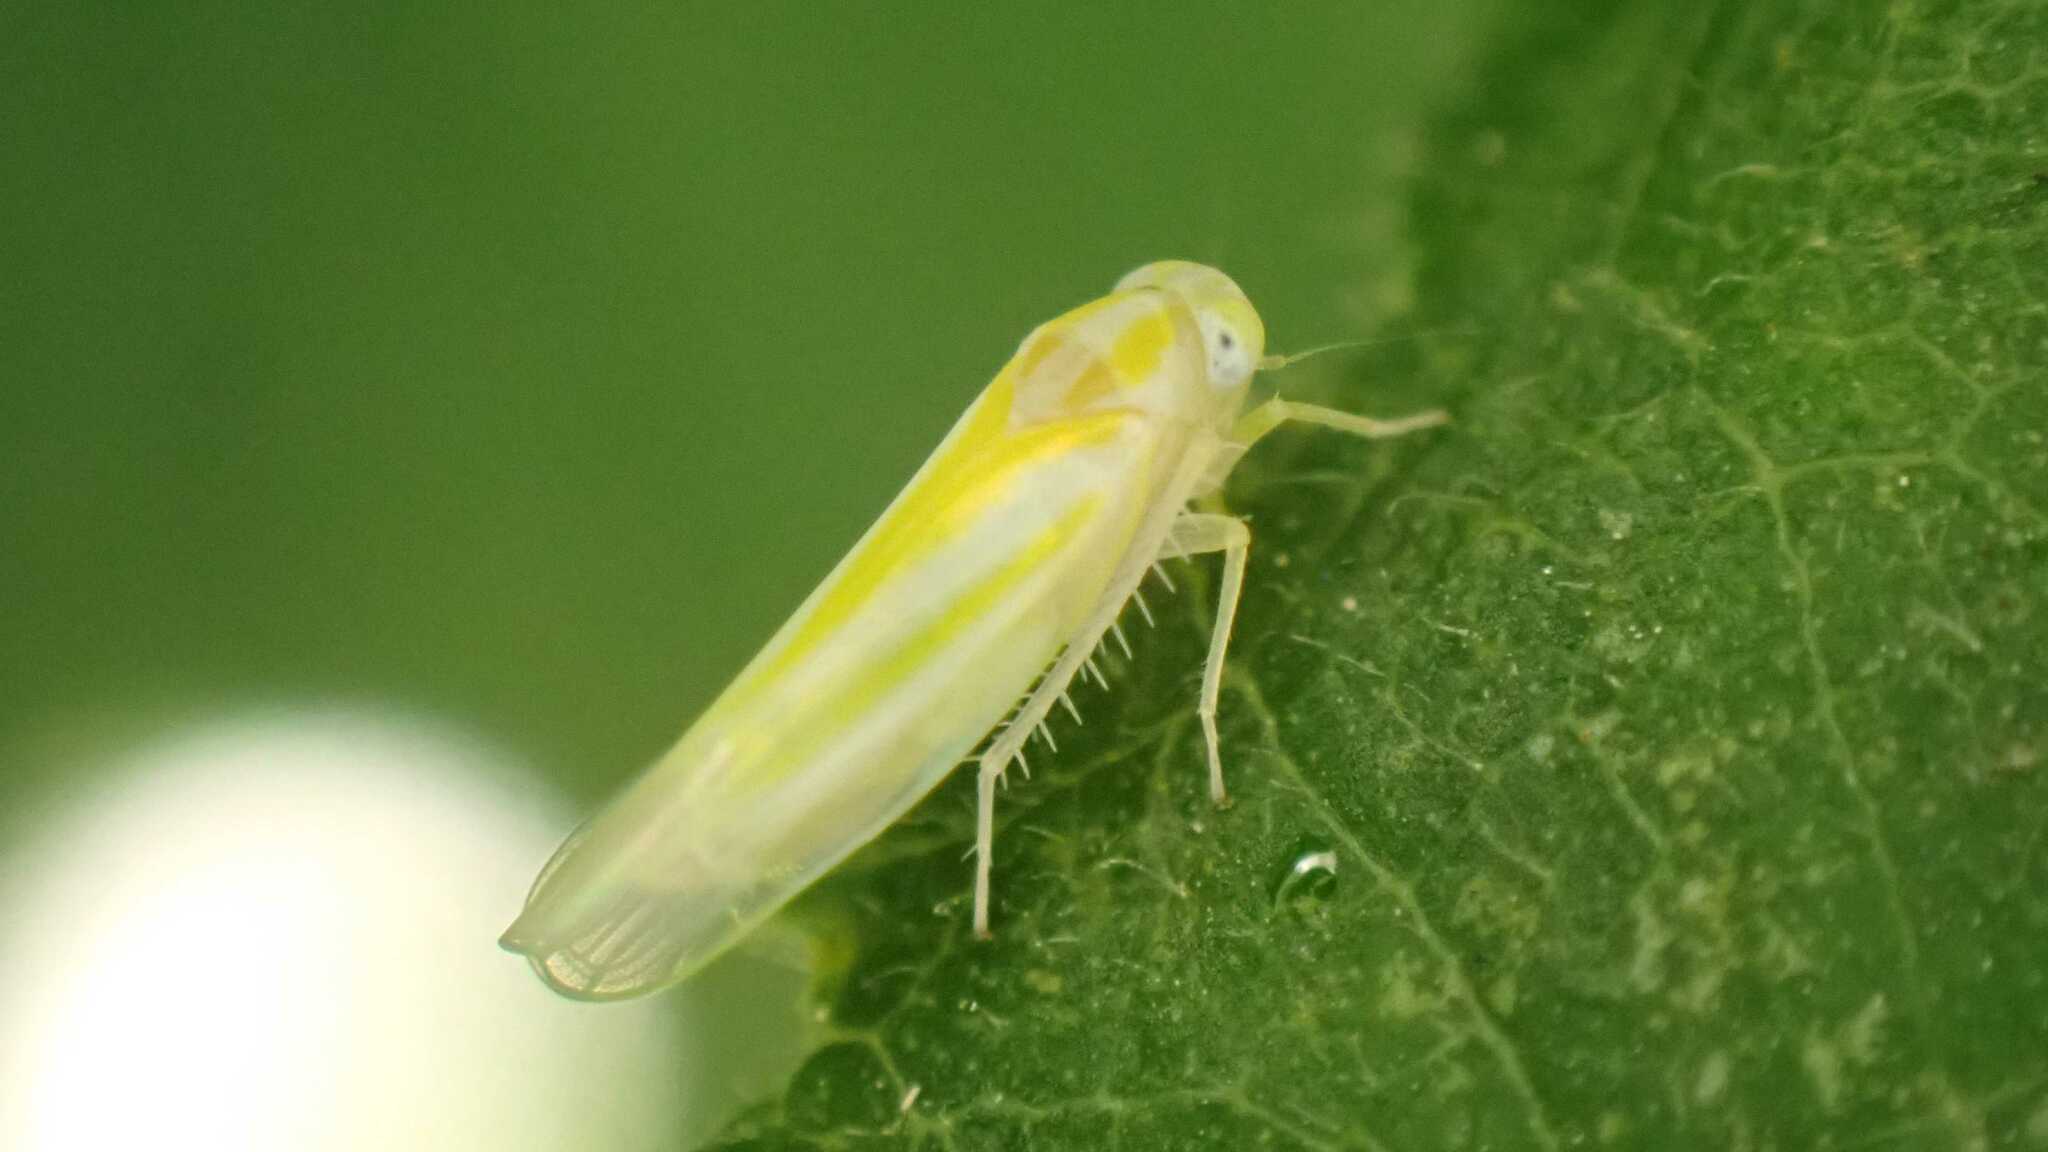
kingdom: Animalia
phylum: Arthropoda
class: Insecta
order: Hemiptera
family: Cicadellidae
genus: Alebra
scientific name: Alebra coryli
